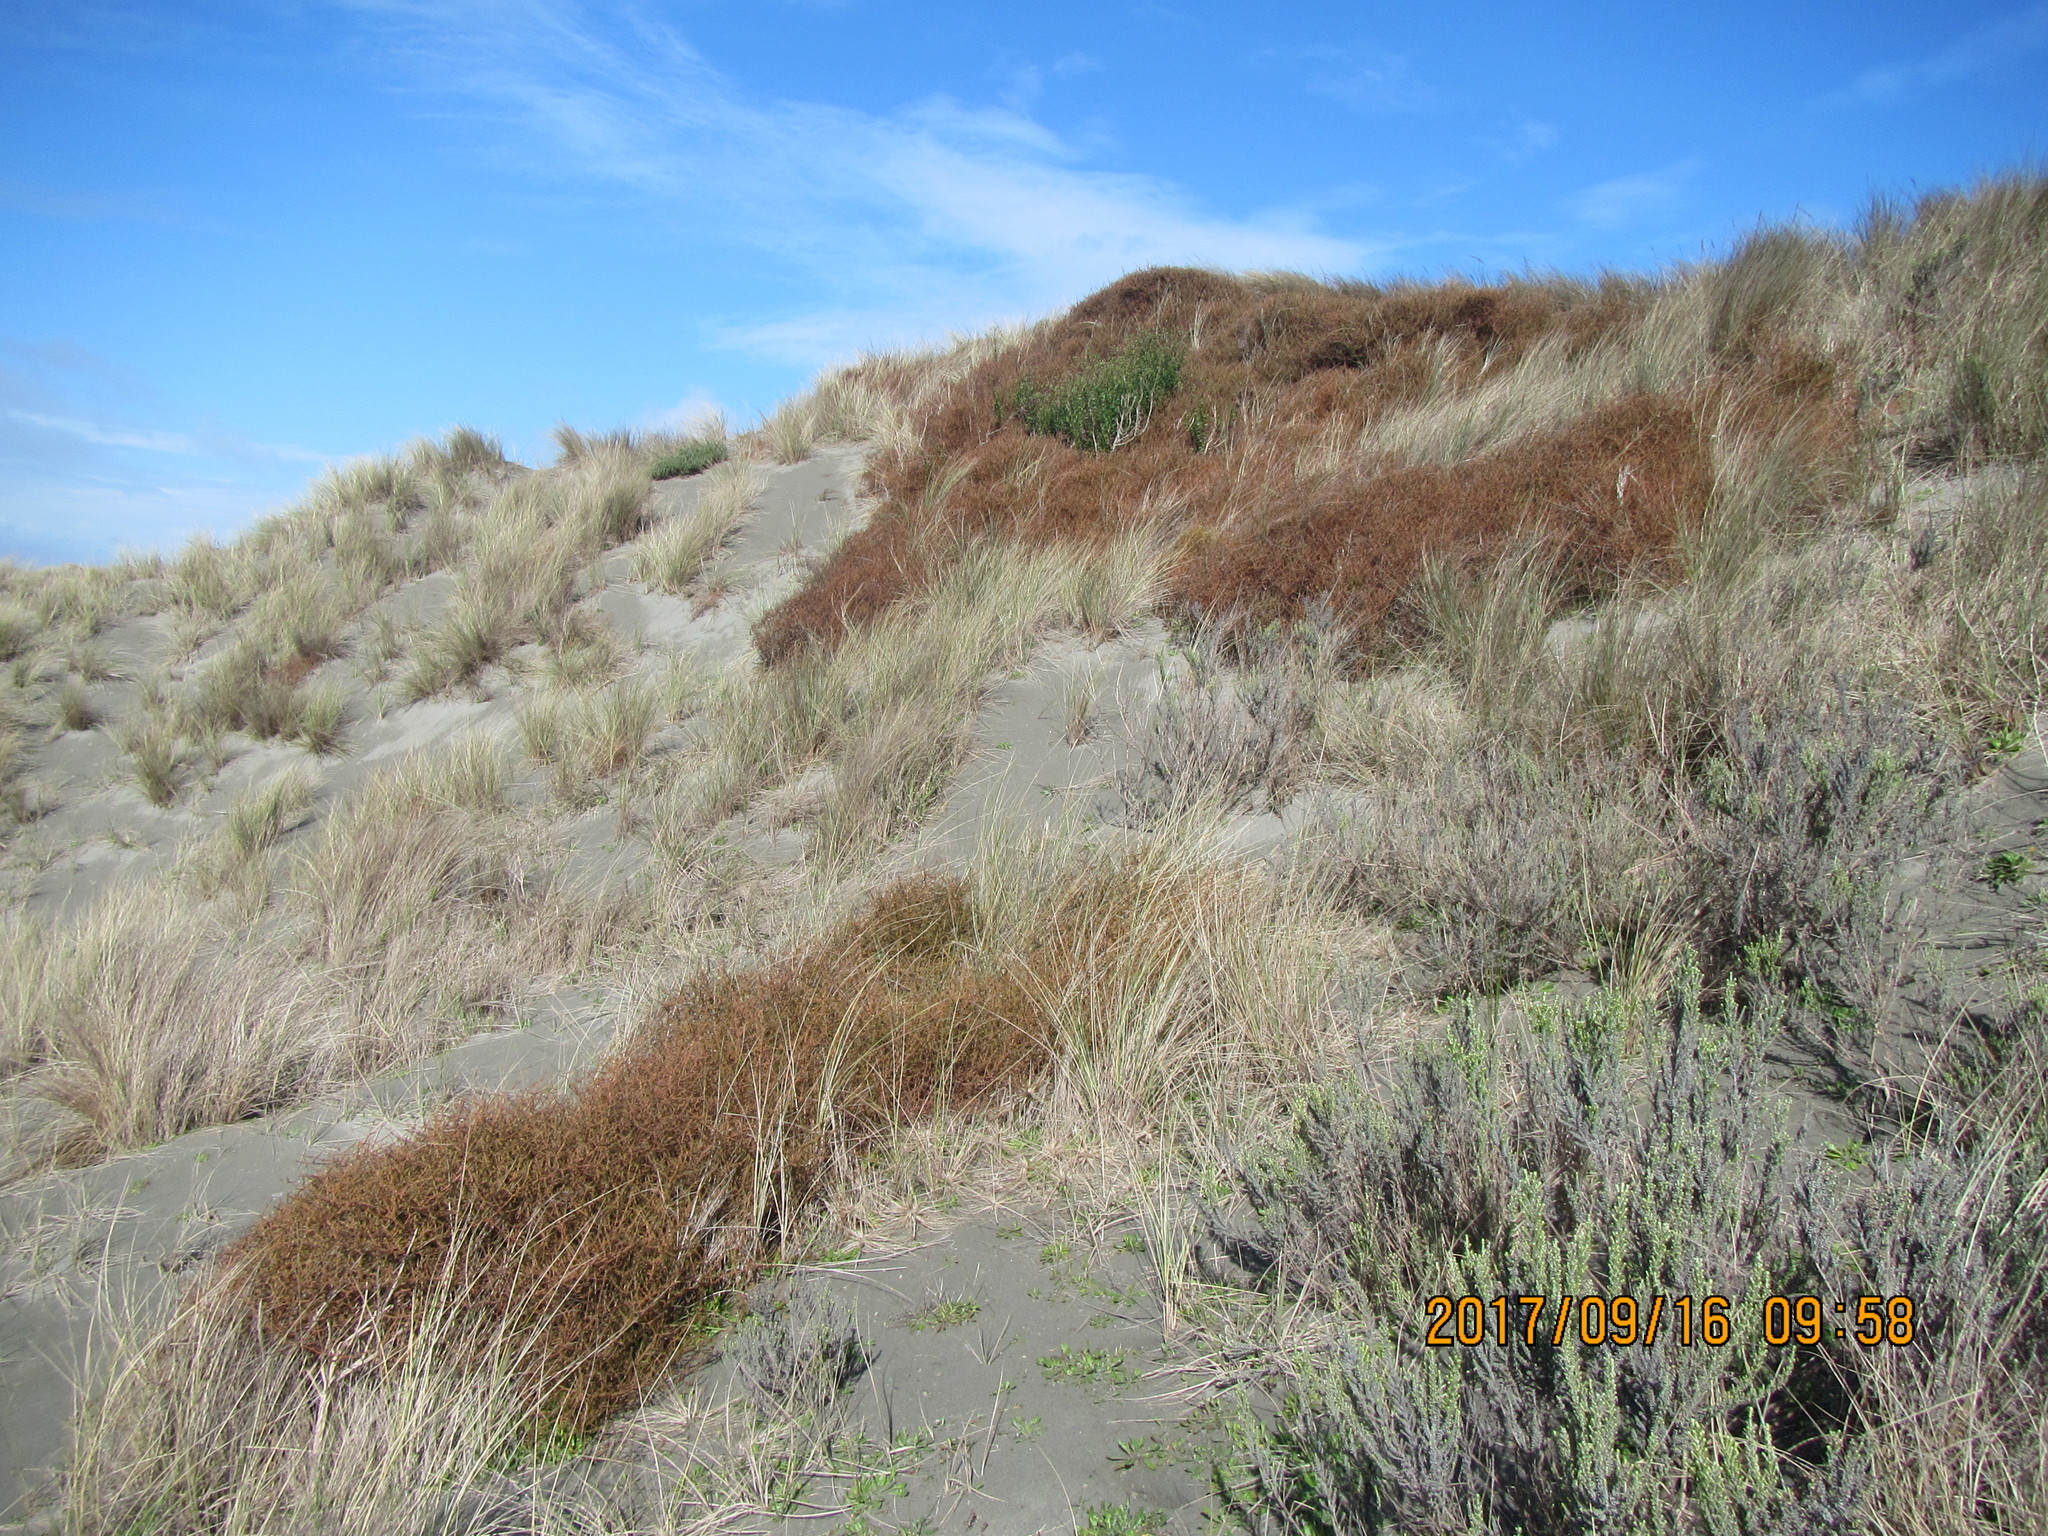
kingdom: Plantae
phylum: Tracheophyta
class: Magnoliopsida
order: Gentianales
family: Rubiaceae
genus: Coprosma
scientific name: Coprosma acerosa
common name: Sand coprosma
